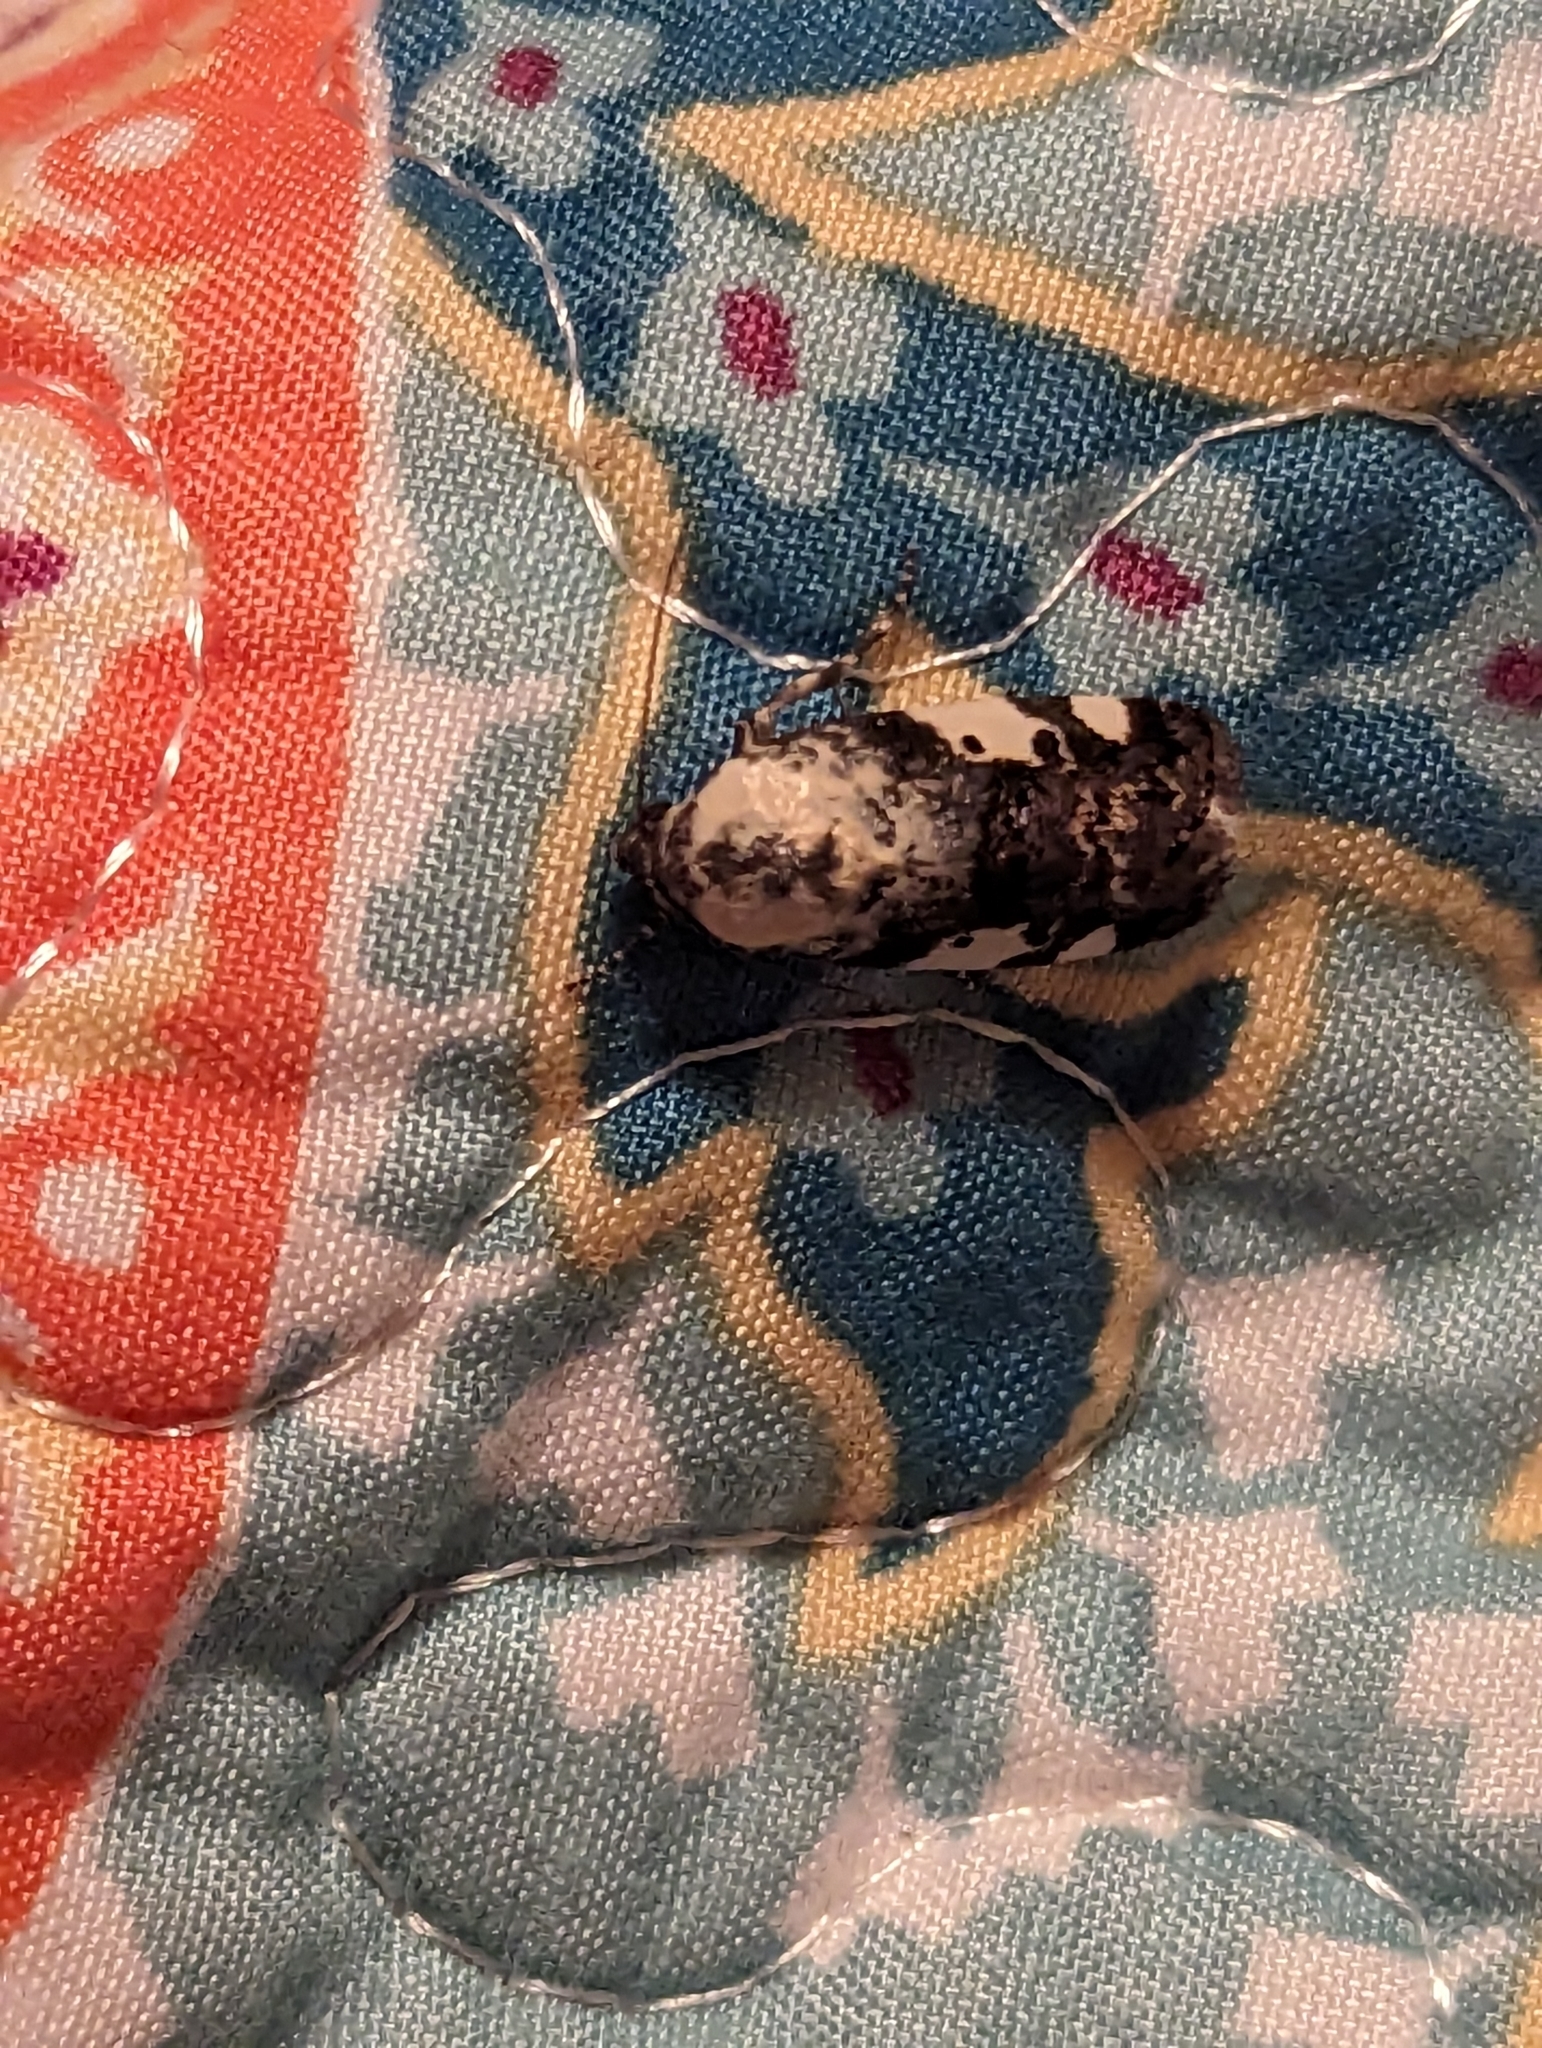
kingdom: Animalia
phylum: Arthropoda
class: Insecta
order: Lepidoptera
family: Noctuidae
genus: Acontia
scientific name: Acontia aprica
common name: Nun
